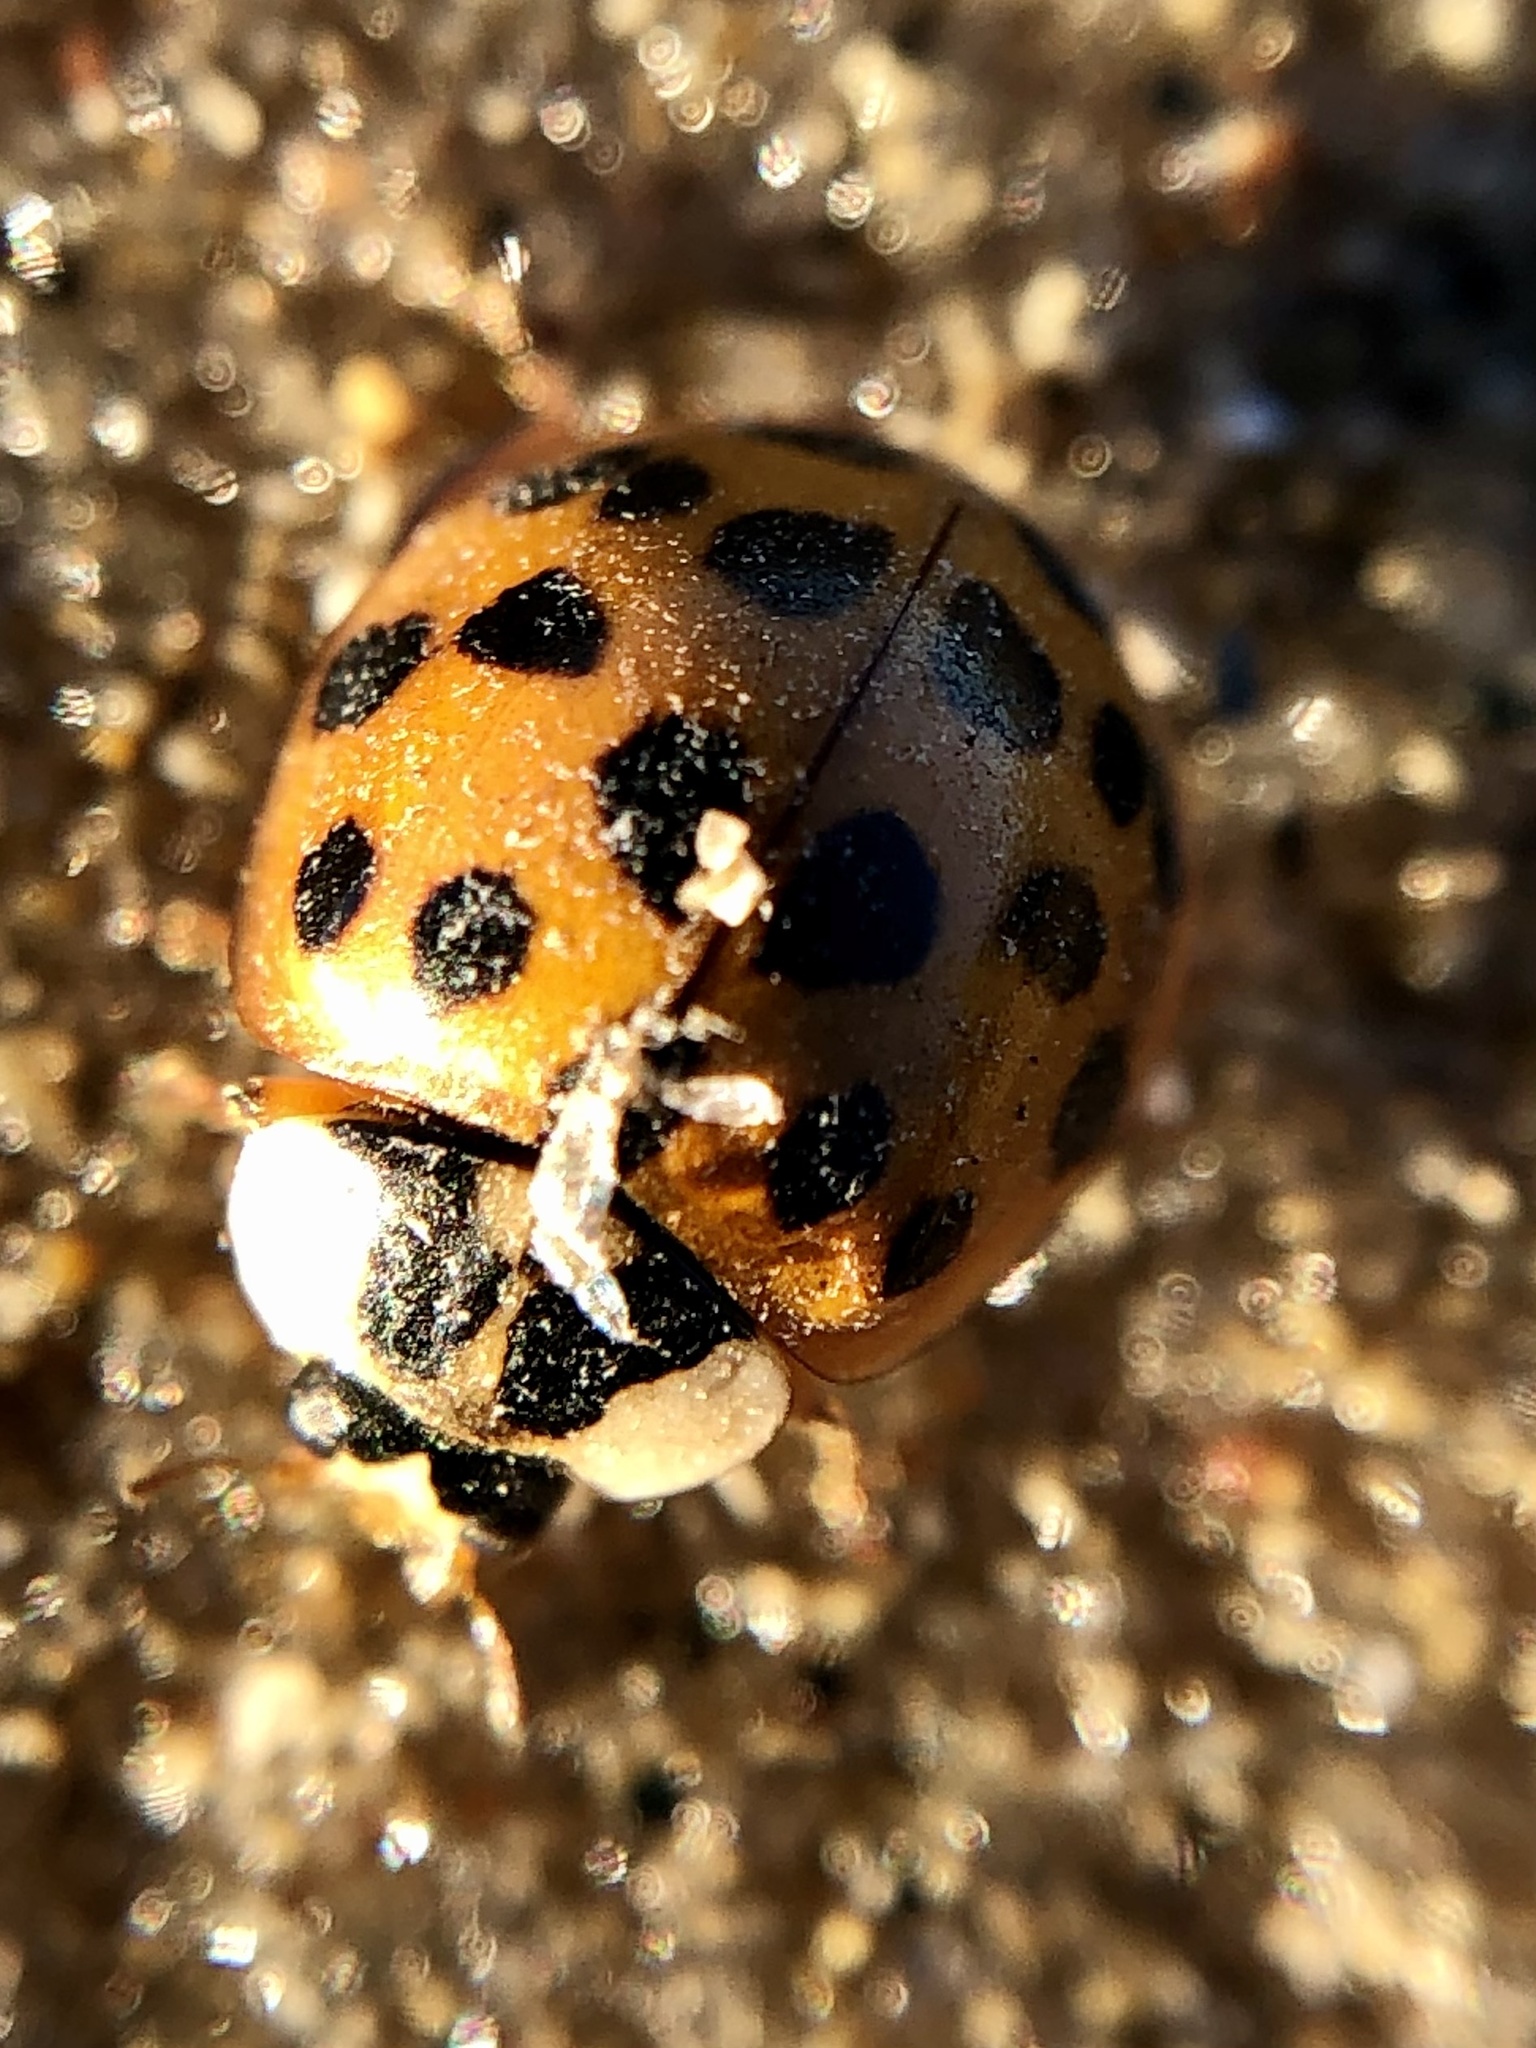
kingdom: Animalia
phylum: Arthropoda
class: Insecta
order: Coleoptera
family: Coccinellidae
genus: Harmonia
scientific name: Harmonia axyridis
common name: Harlequin ladybird
